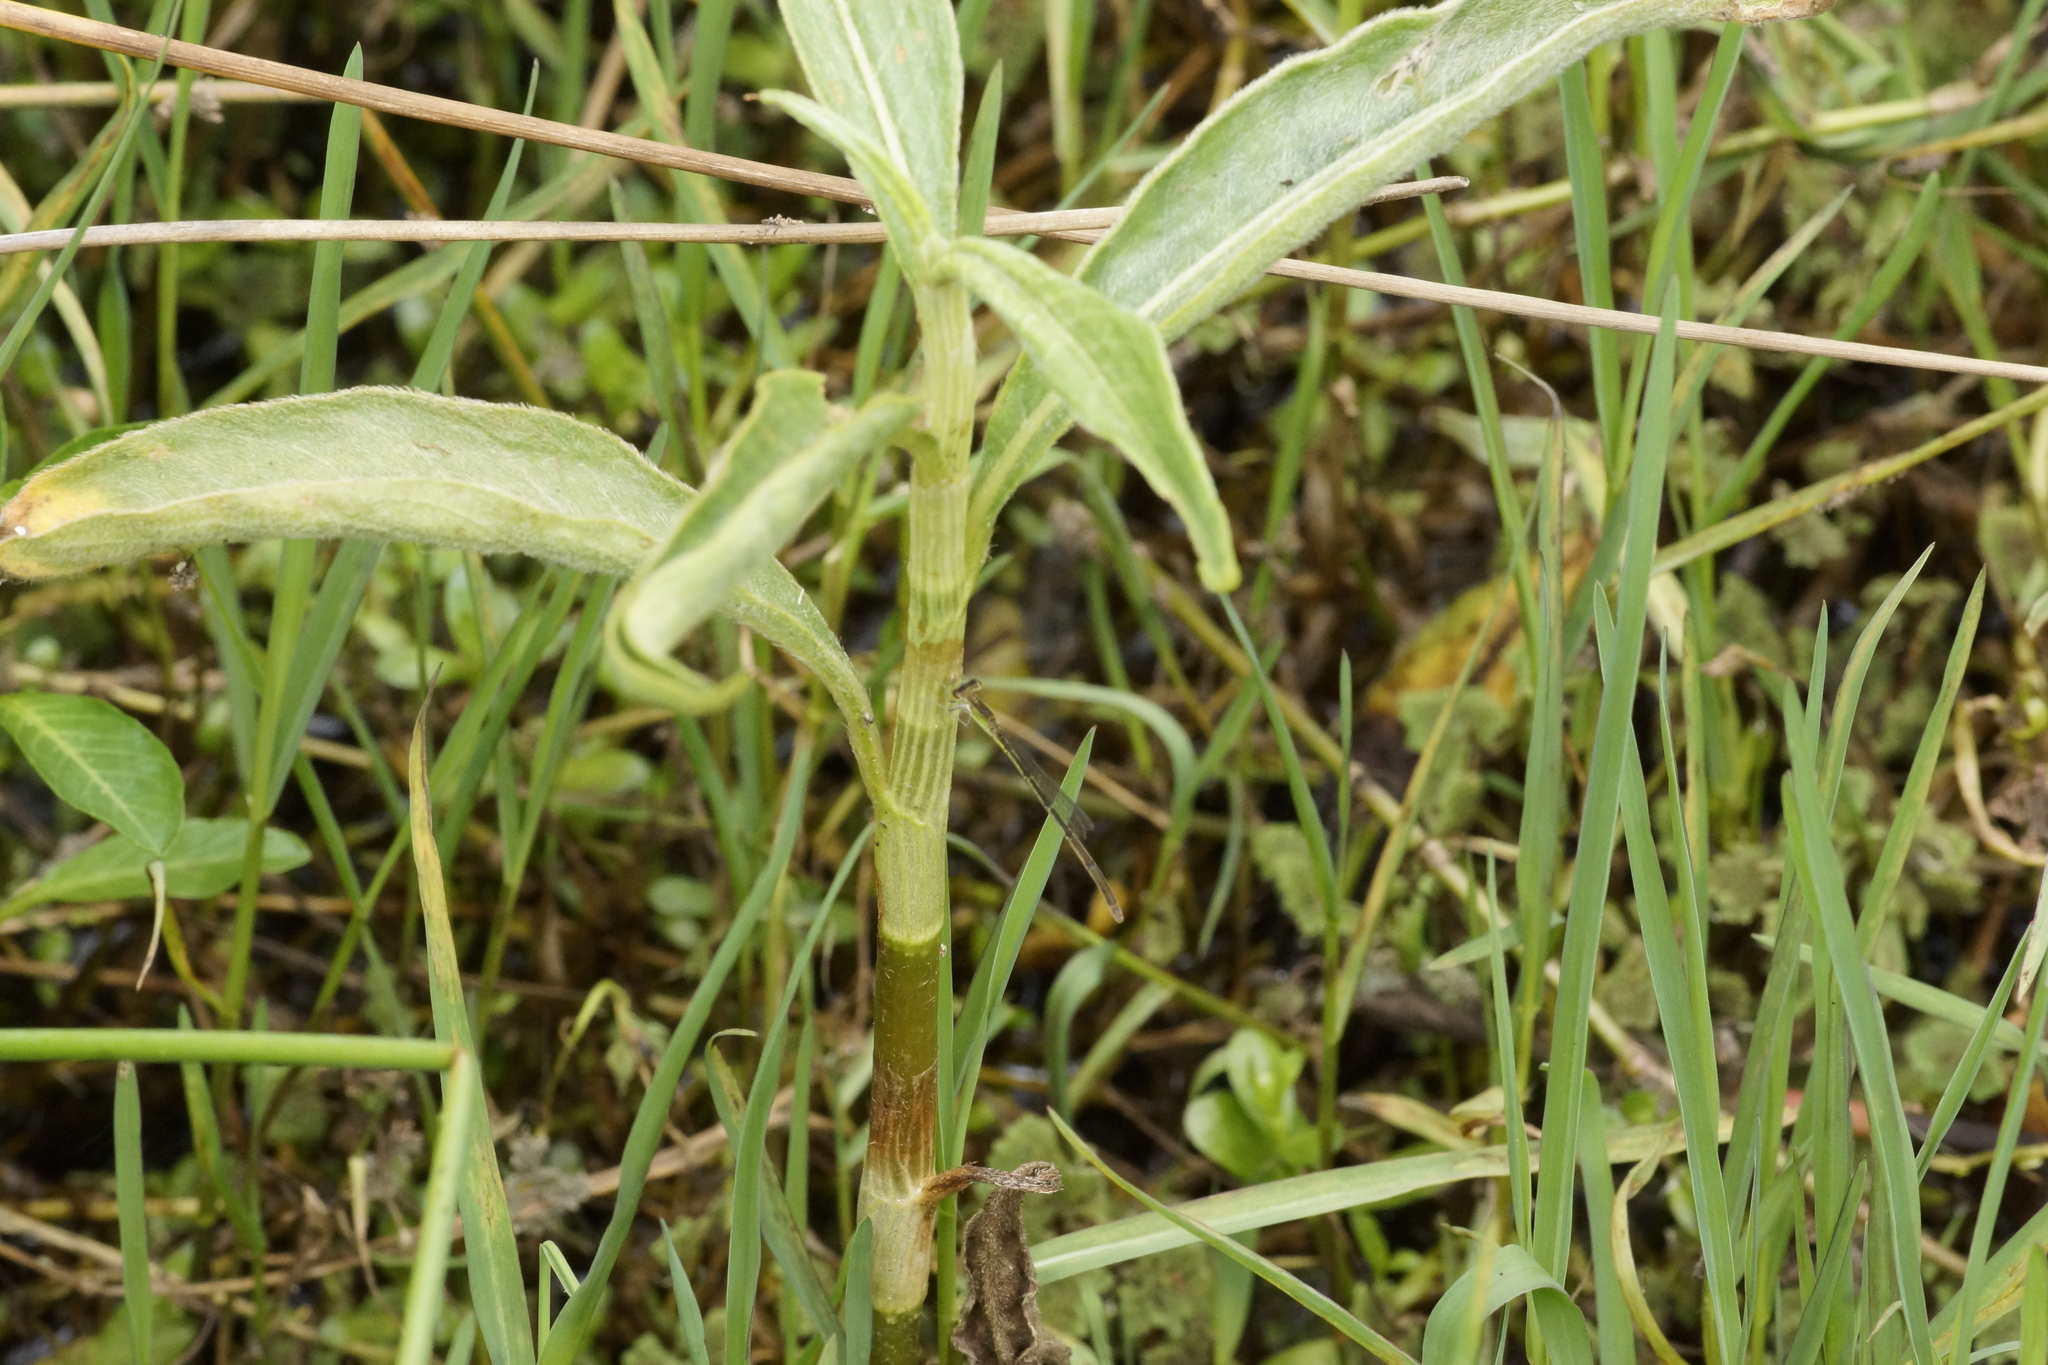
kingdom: Animalia
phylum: Arthropoda
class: Insecta
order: Odonata
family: Coenagrionidae
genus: Agriocnemis
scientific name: Agriocnemis pygmaea
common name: Pygmy wisp
